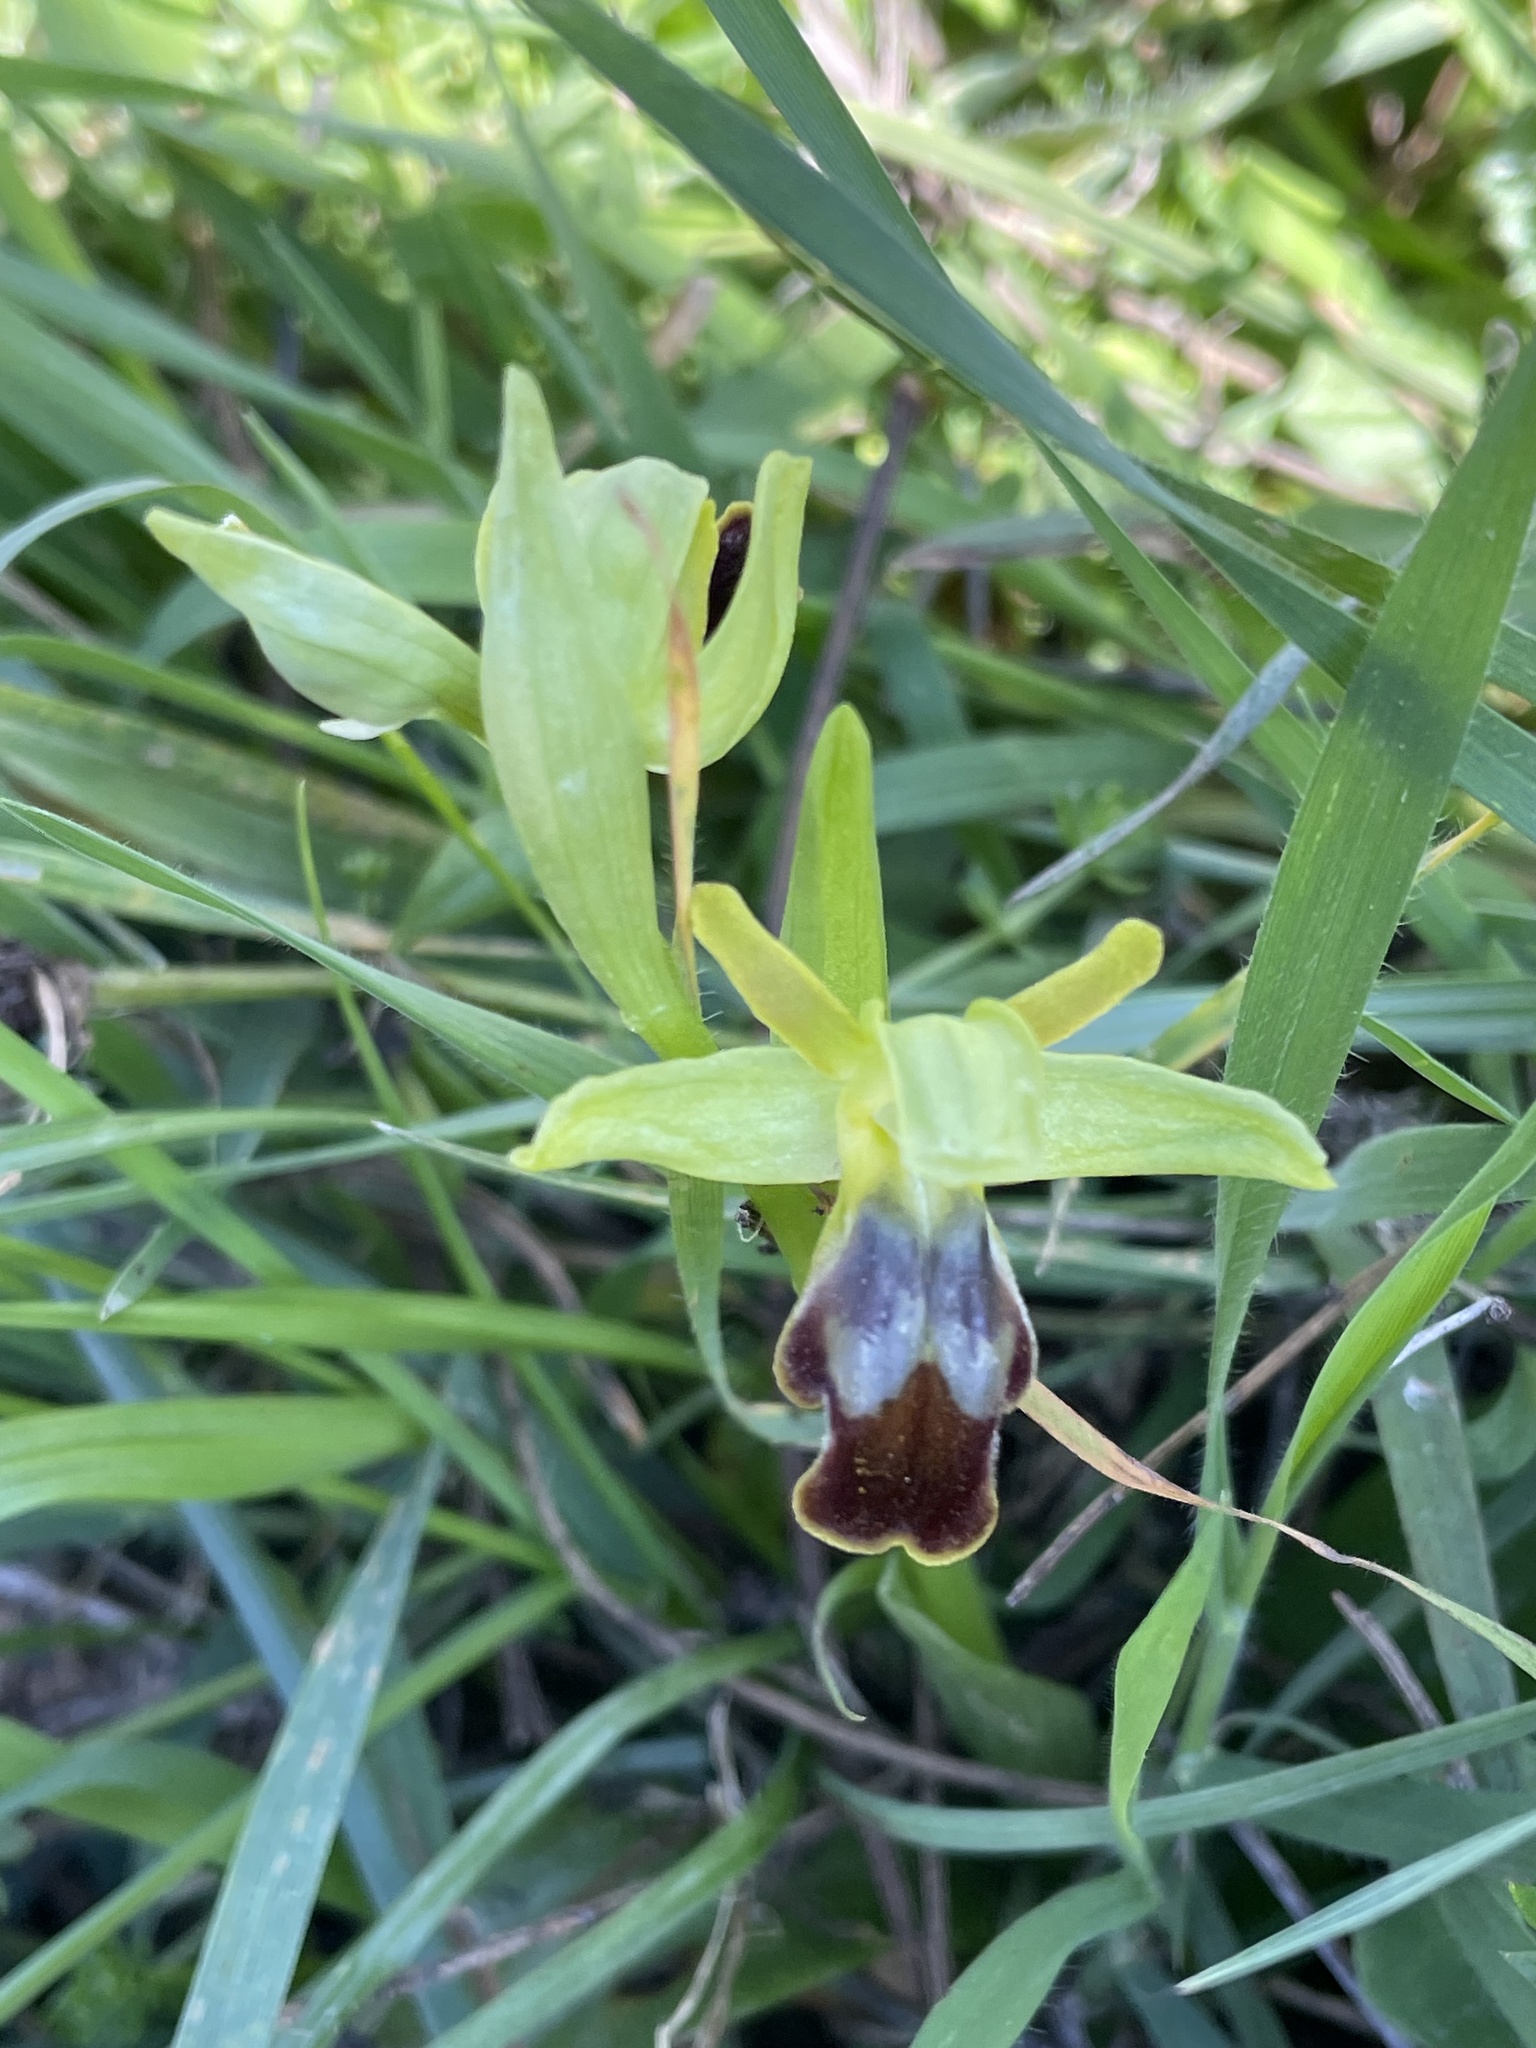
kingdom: Plantae
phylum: Tracheophyta
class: Liliopsida
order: Asparagales
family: Orchidaceae
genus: Ophrys
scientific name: Ophrys fusca
